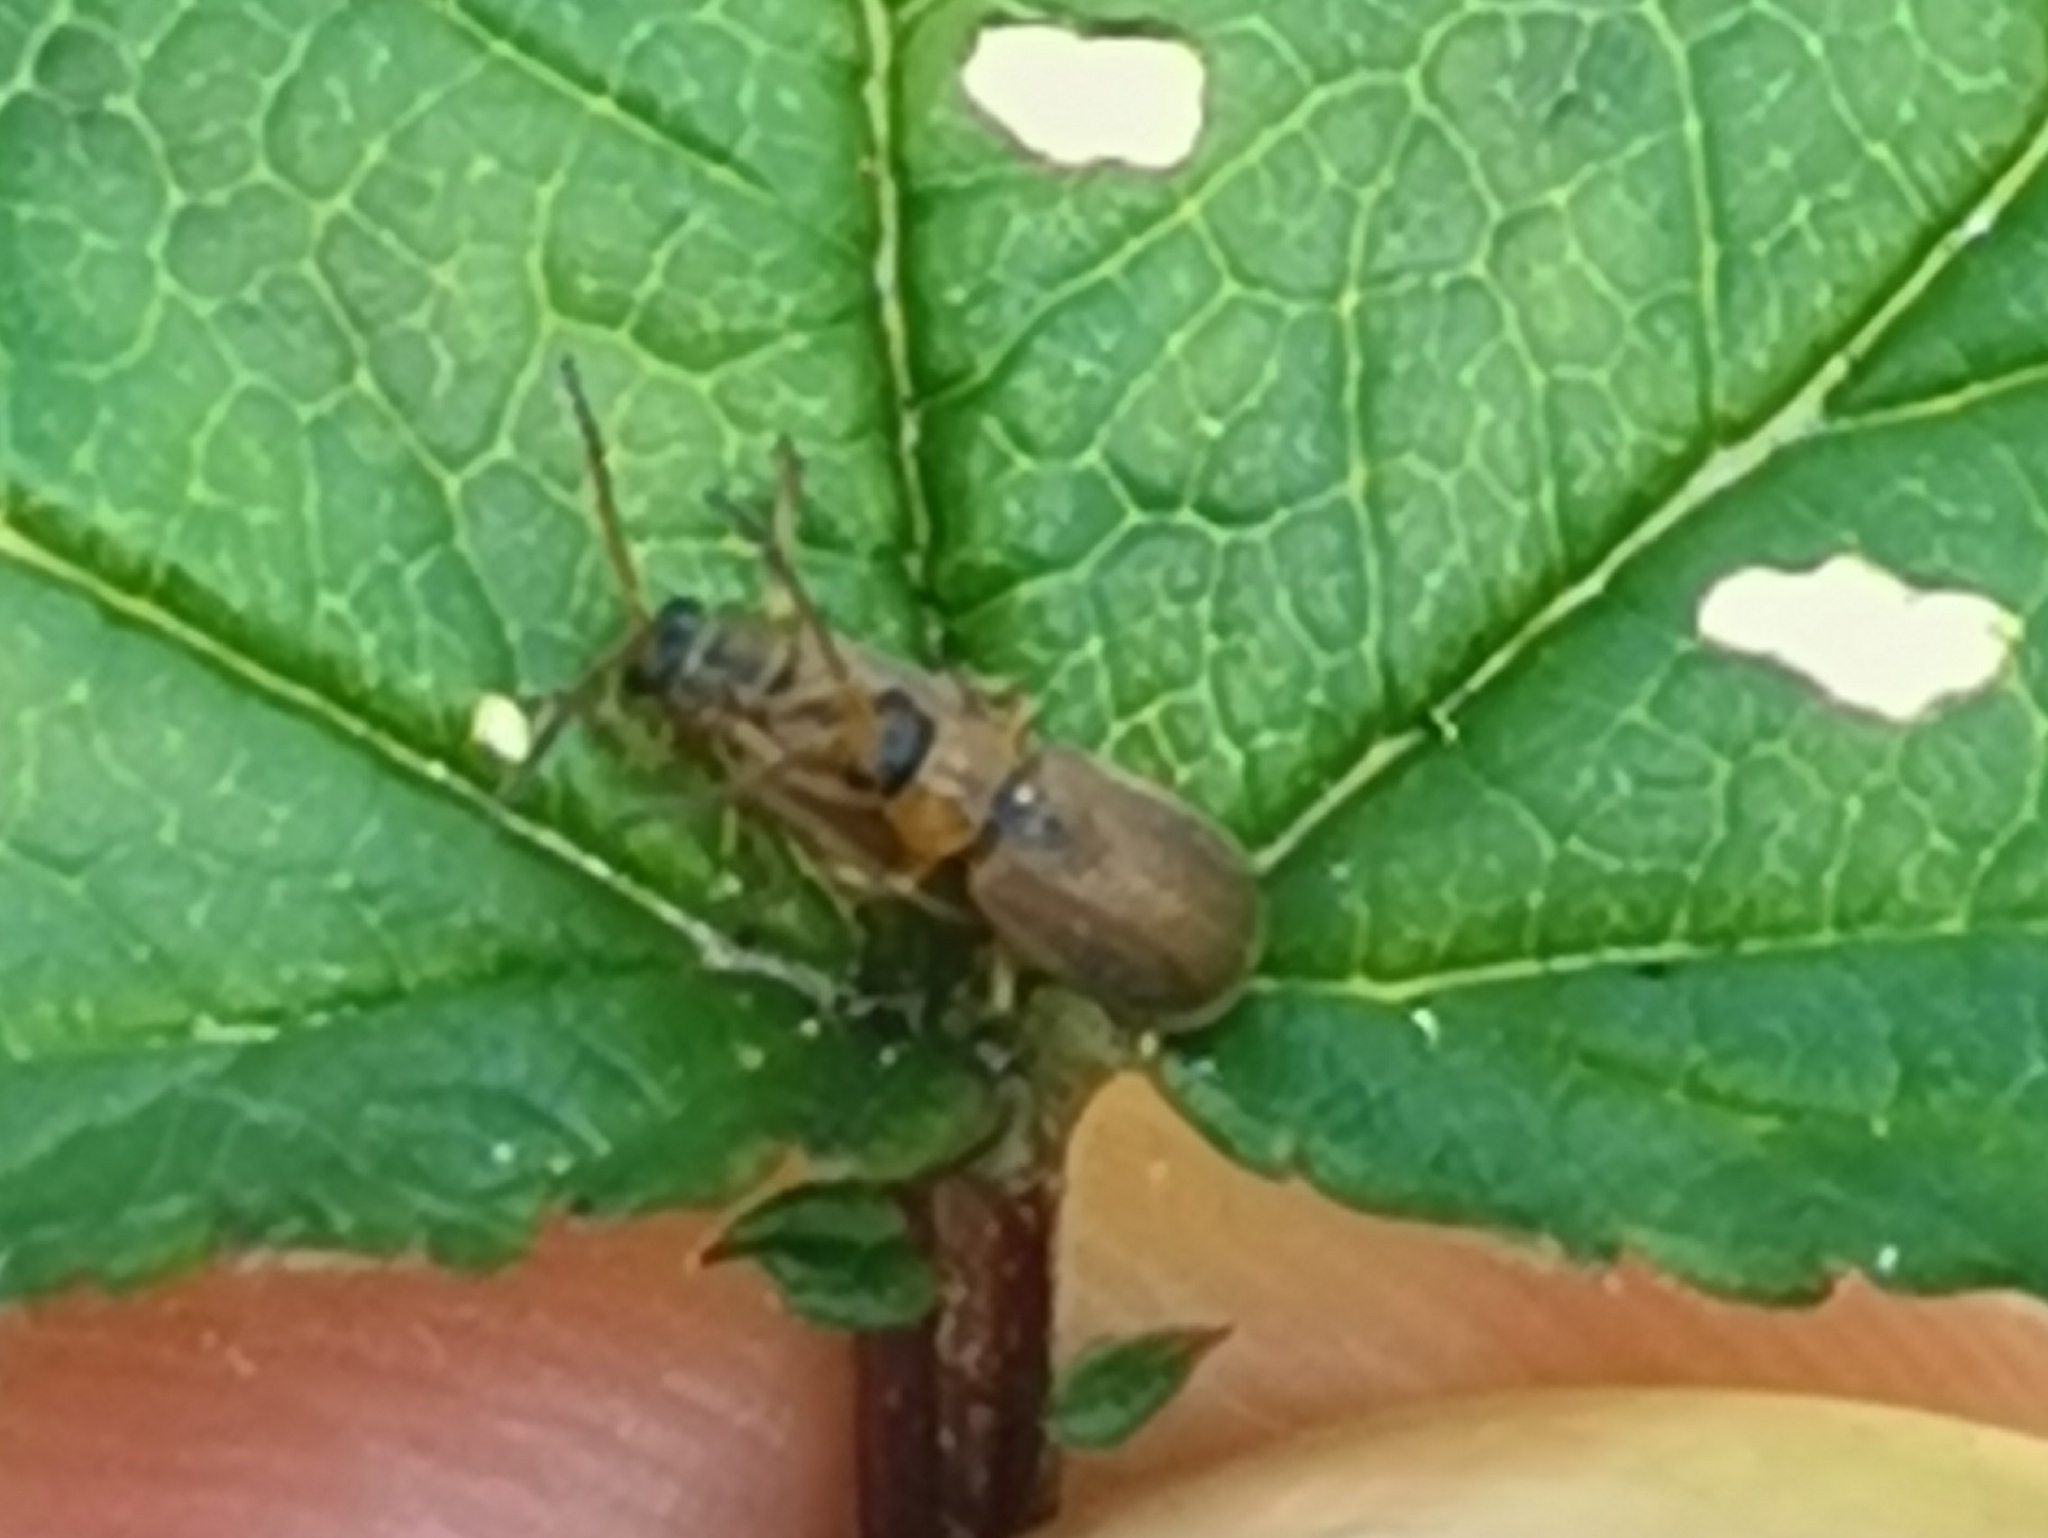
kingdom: Animalia
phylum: Arthropoda
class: Insecta
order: Coleoptera
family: Chrysomelidae
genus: Galerucella
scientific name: Galerucella lineola
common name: Brown willow beetle
